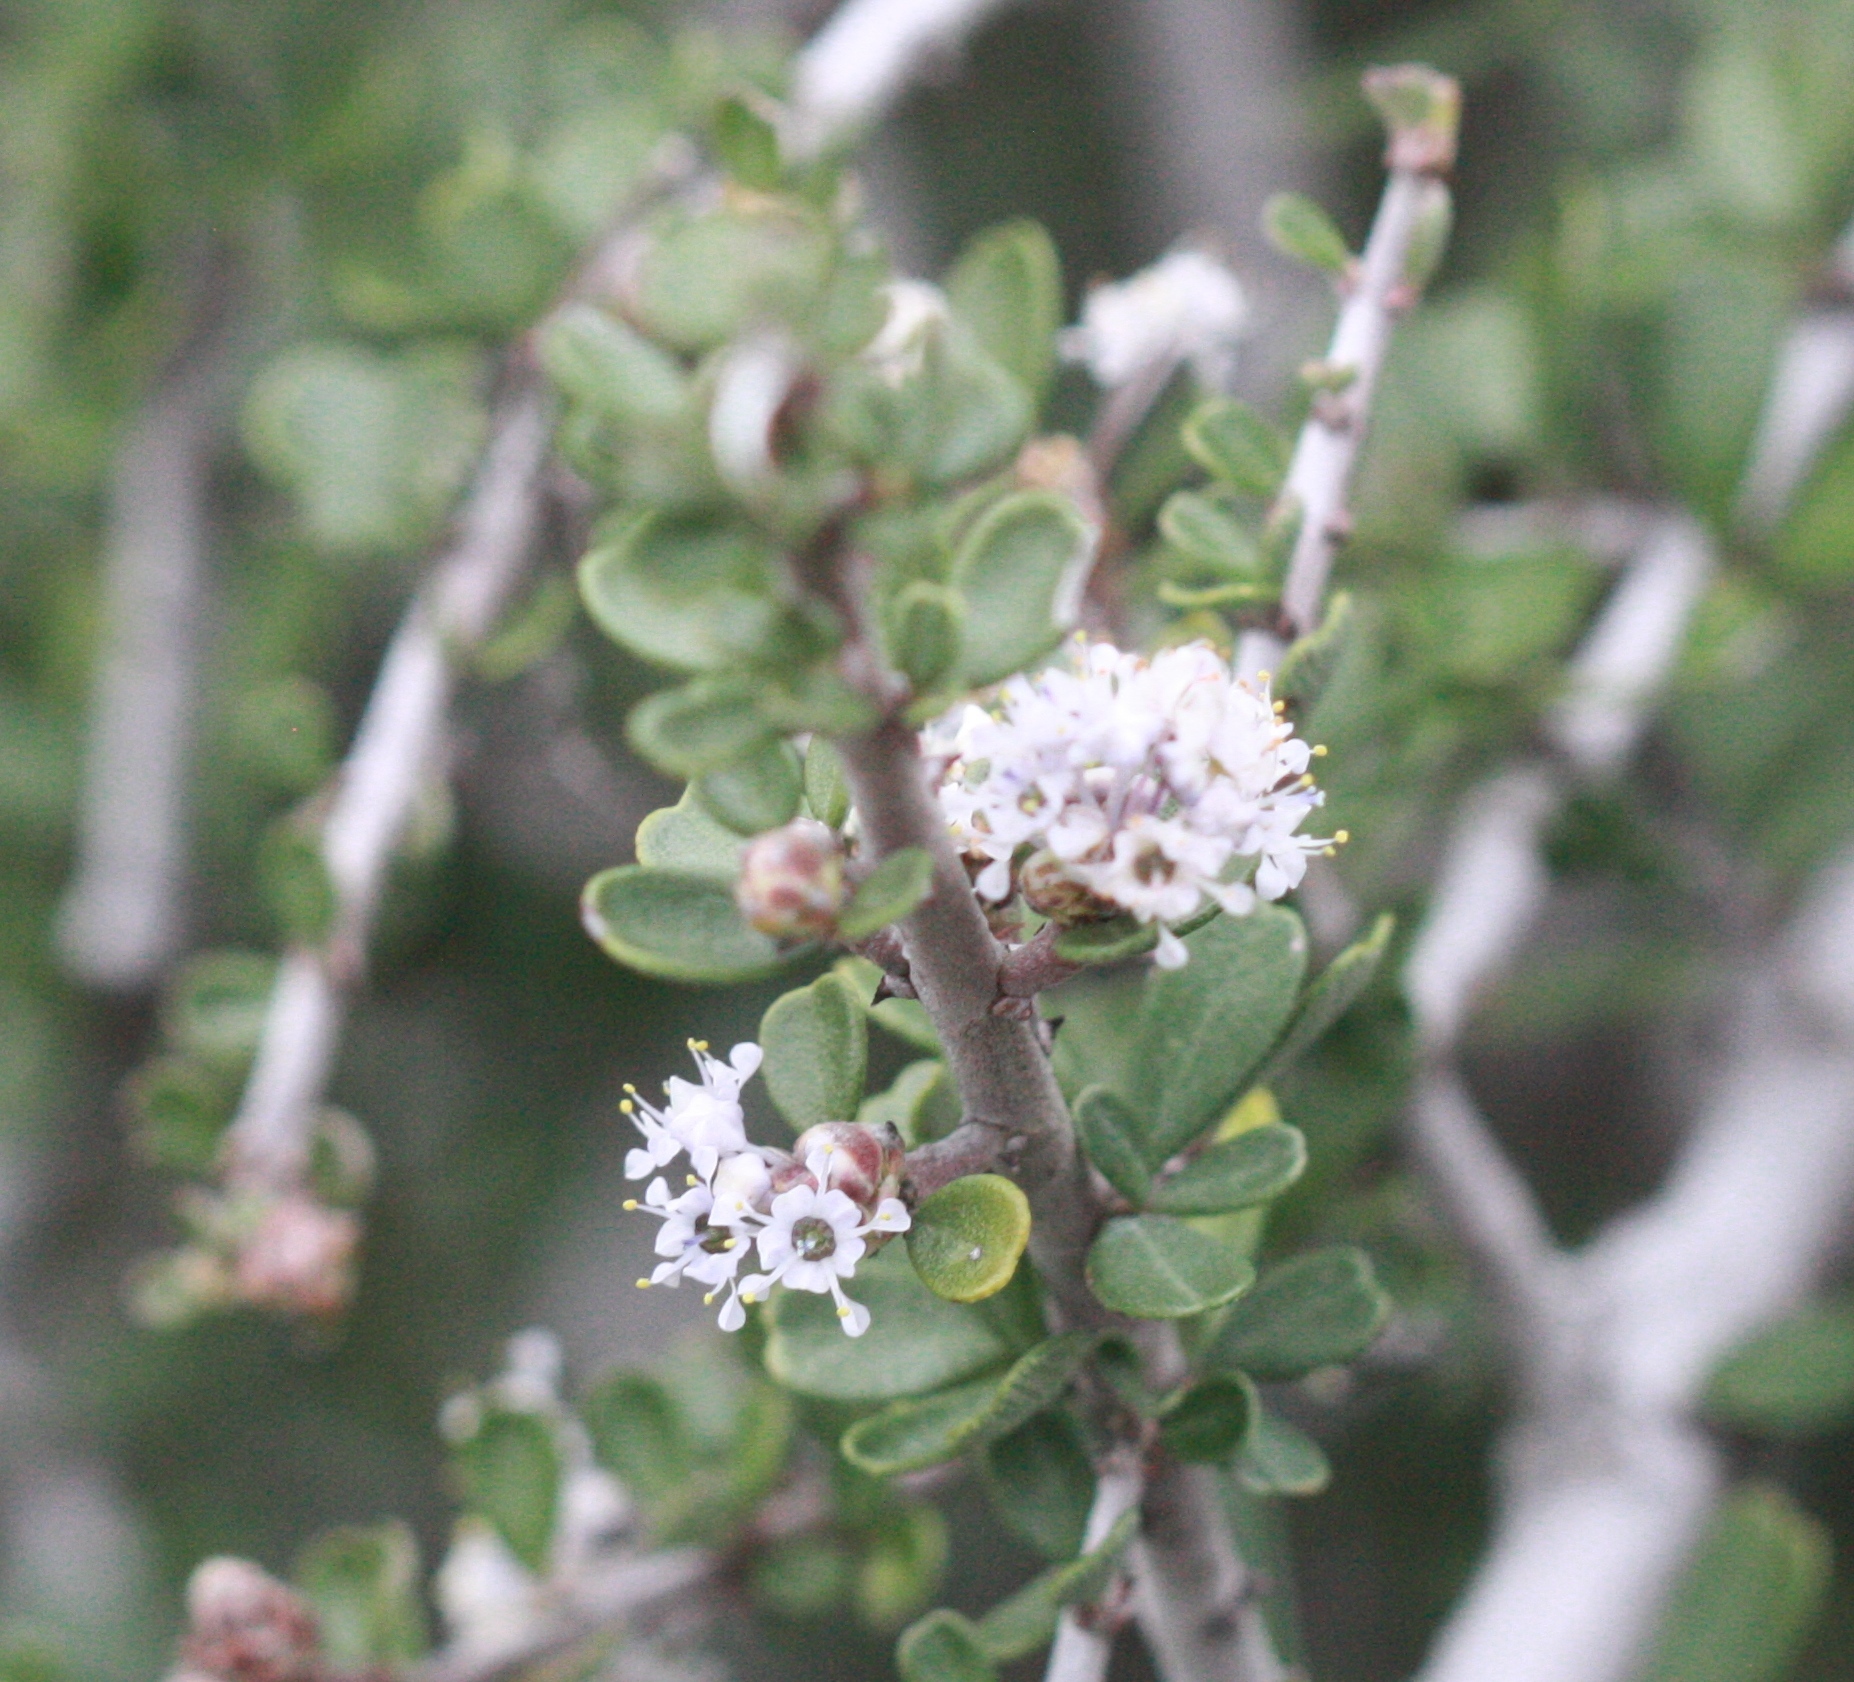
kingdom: Plantae
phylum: Tracheophyta
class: Magnoliopsida
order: Rosales
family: Rhamnaceae
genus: Ceanothus
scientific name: Ceanothus cuneatus
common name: Cuneate ceanothus
